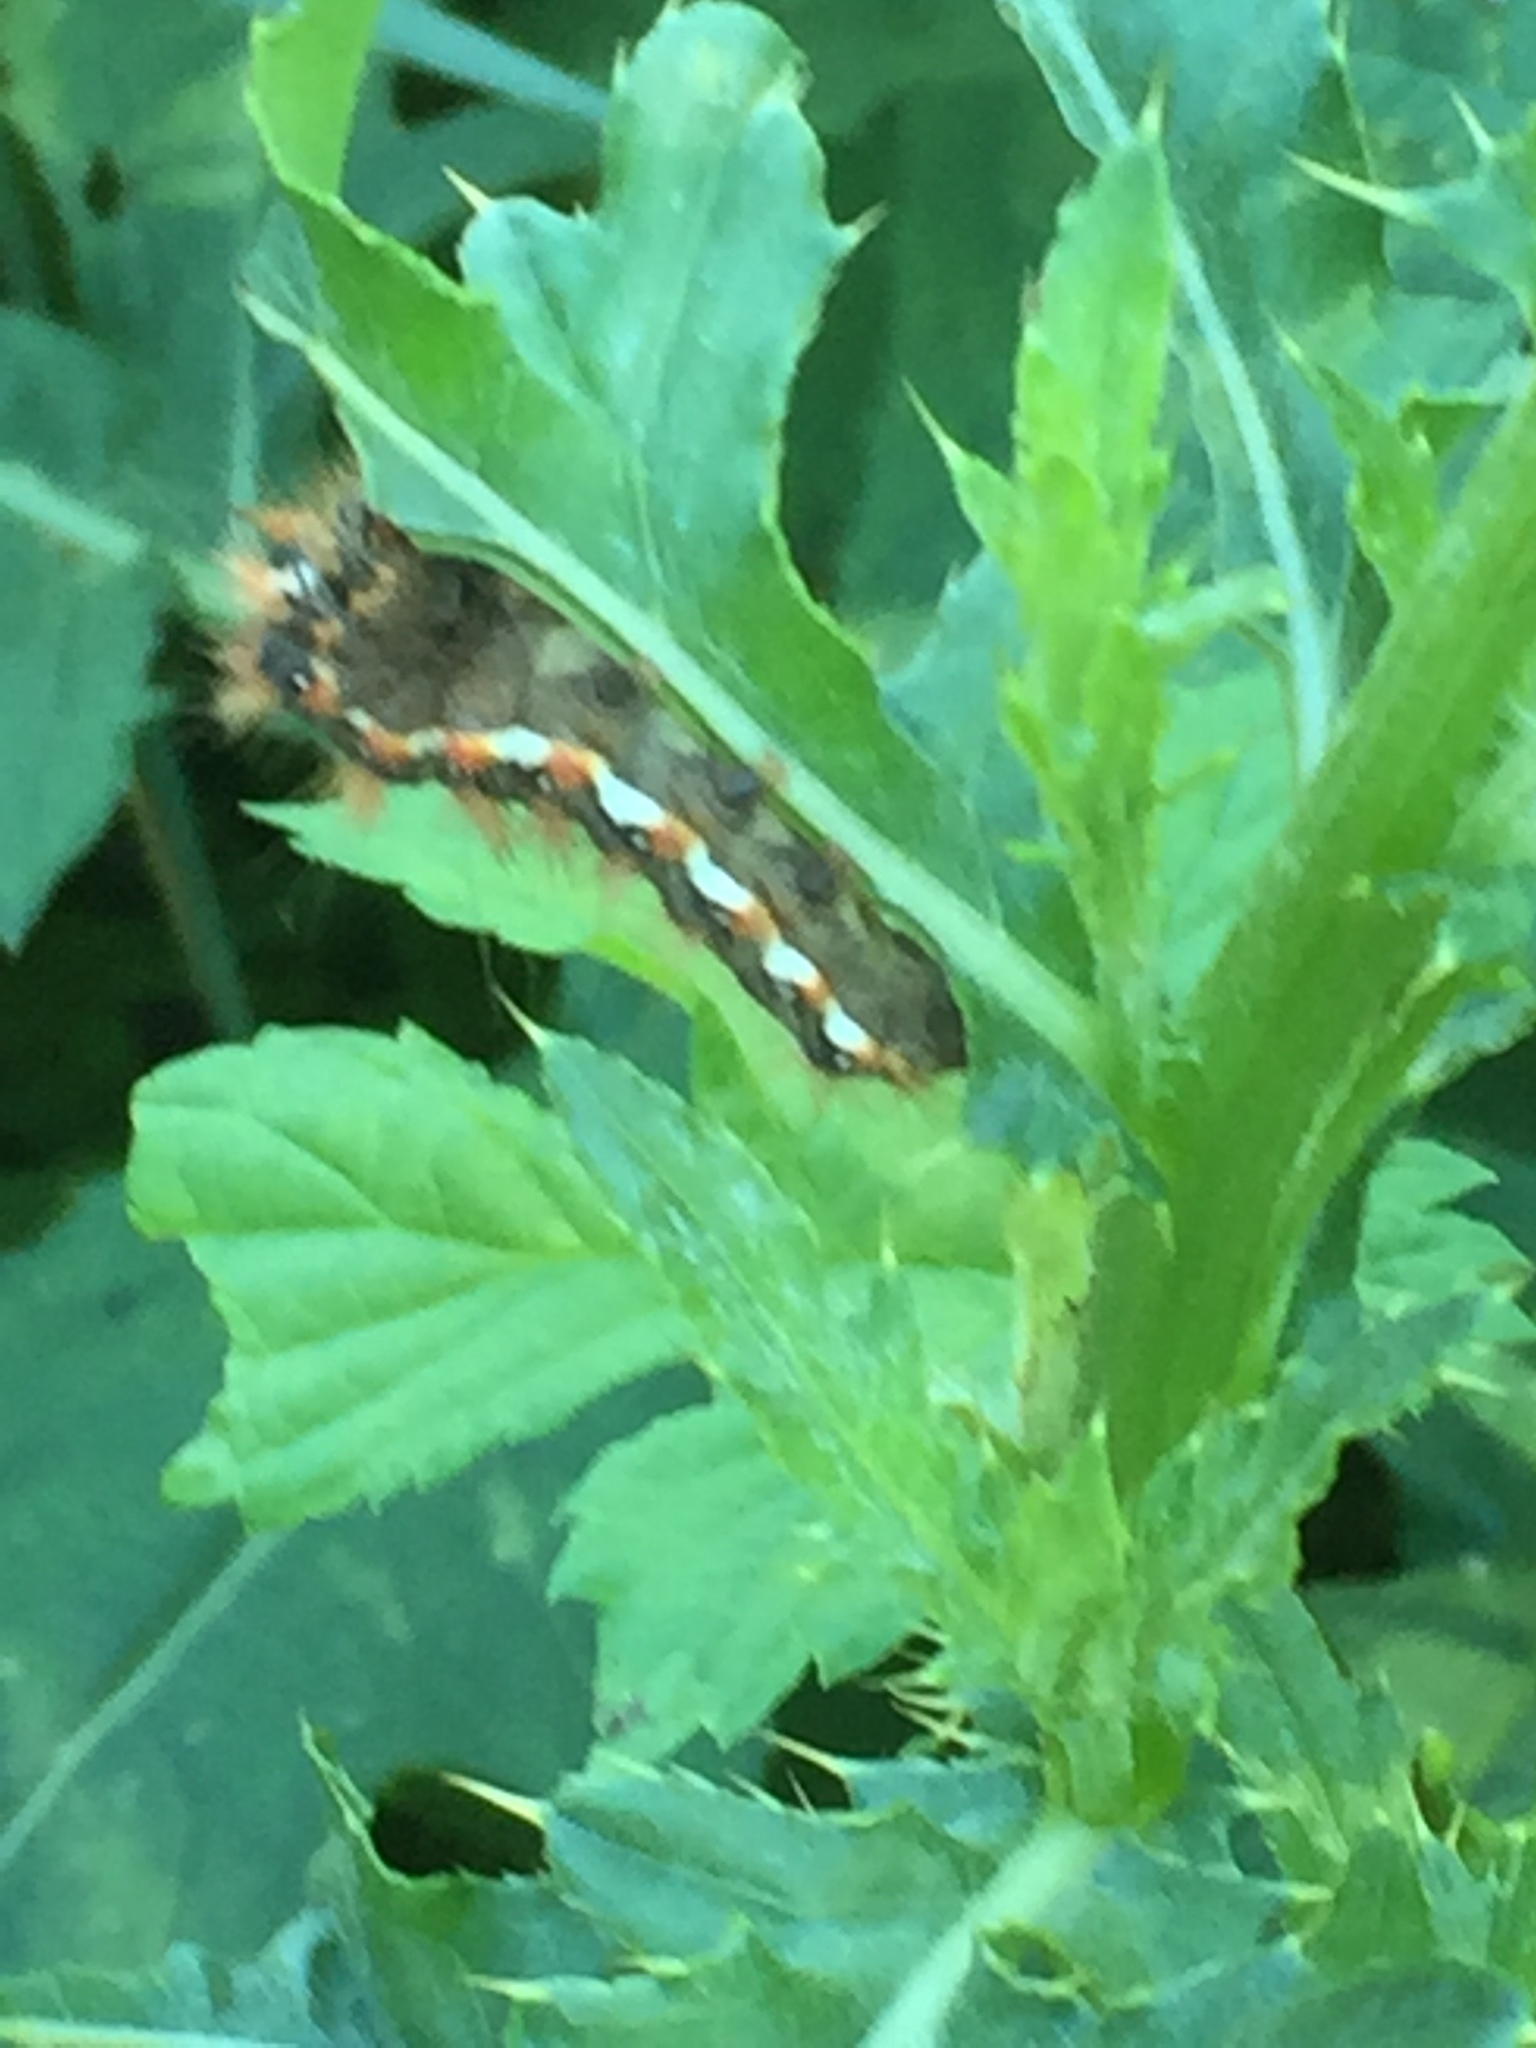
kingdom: Animalia
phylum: Arthropoda
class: Insecta
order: Lepidoptera
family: Noctuidae
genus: Acronicta
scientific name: Acronicta rumicis
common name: Knot grass
